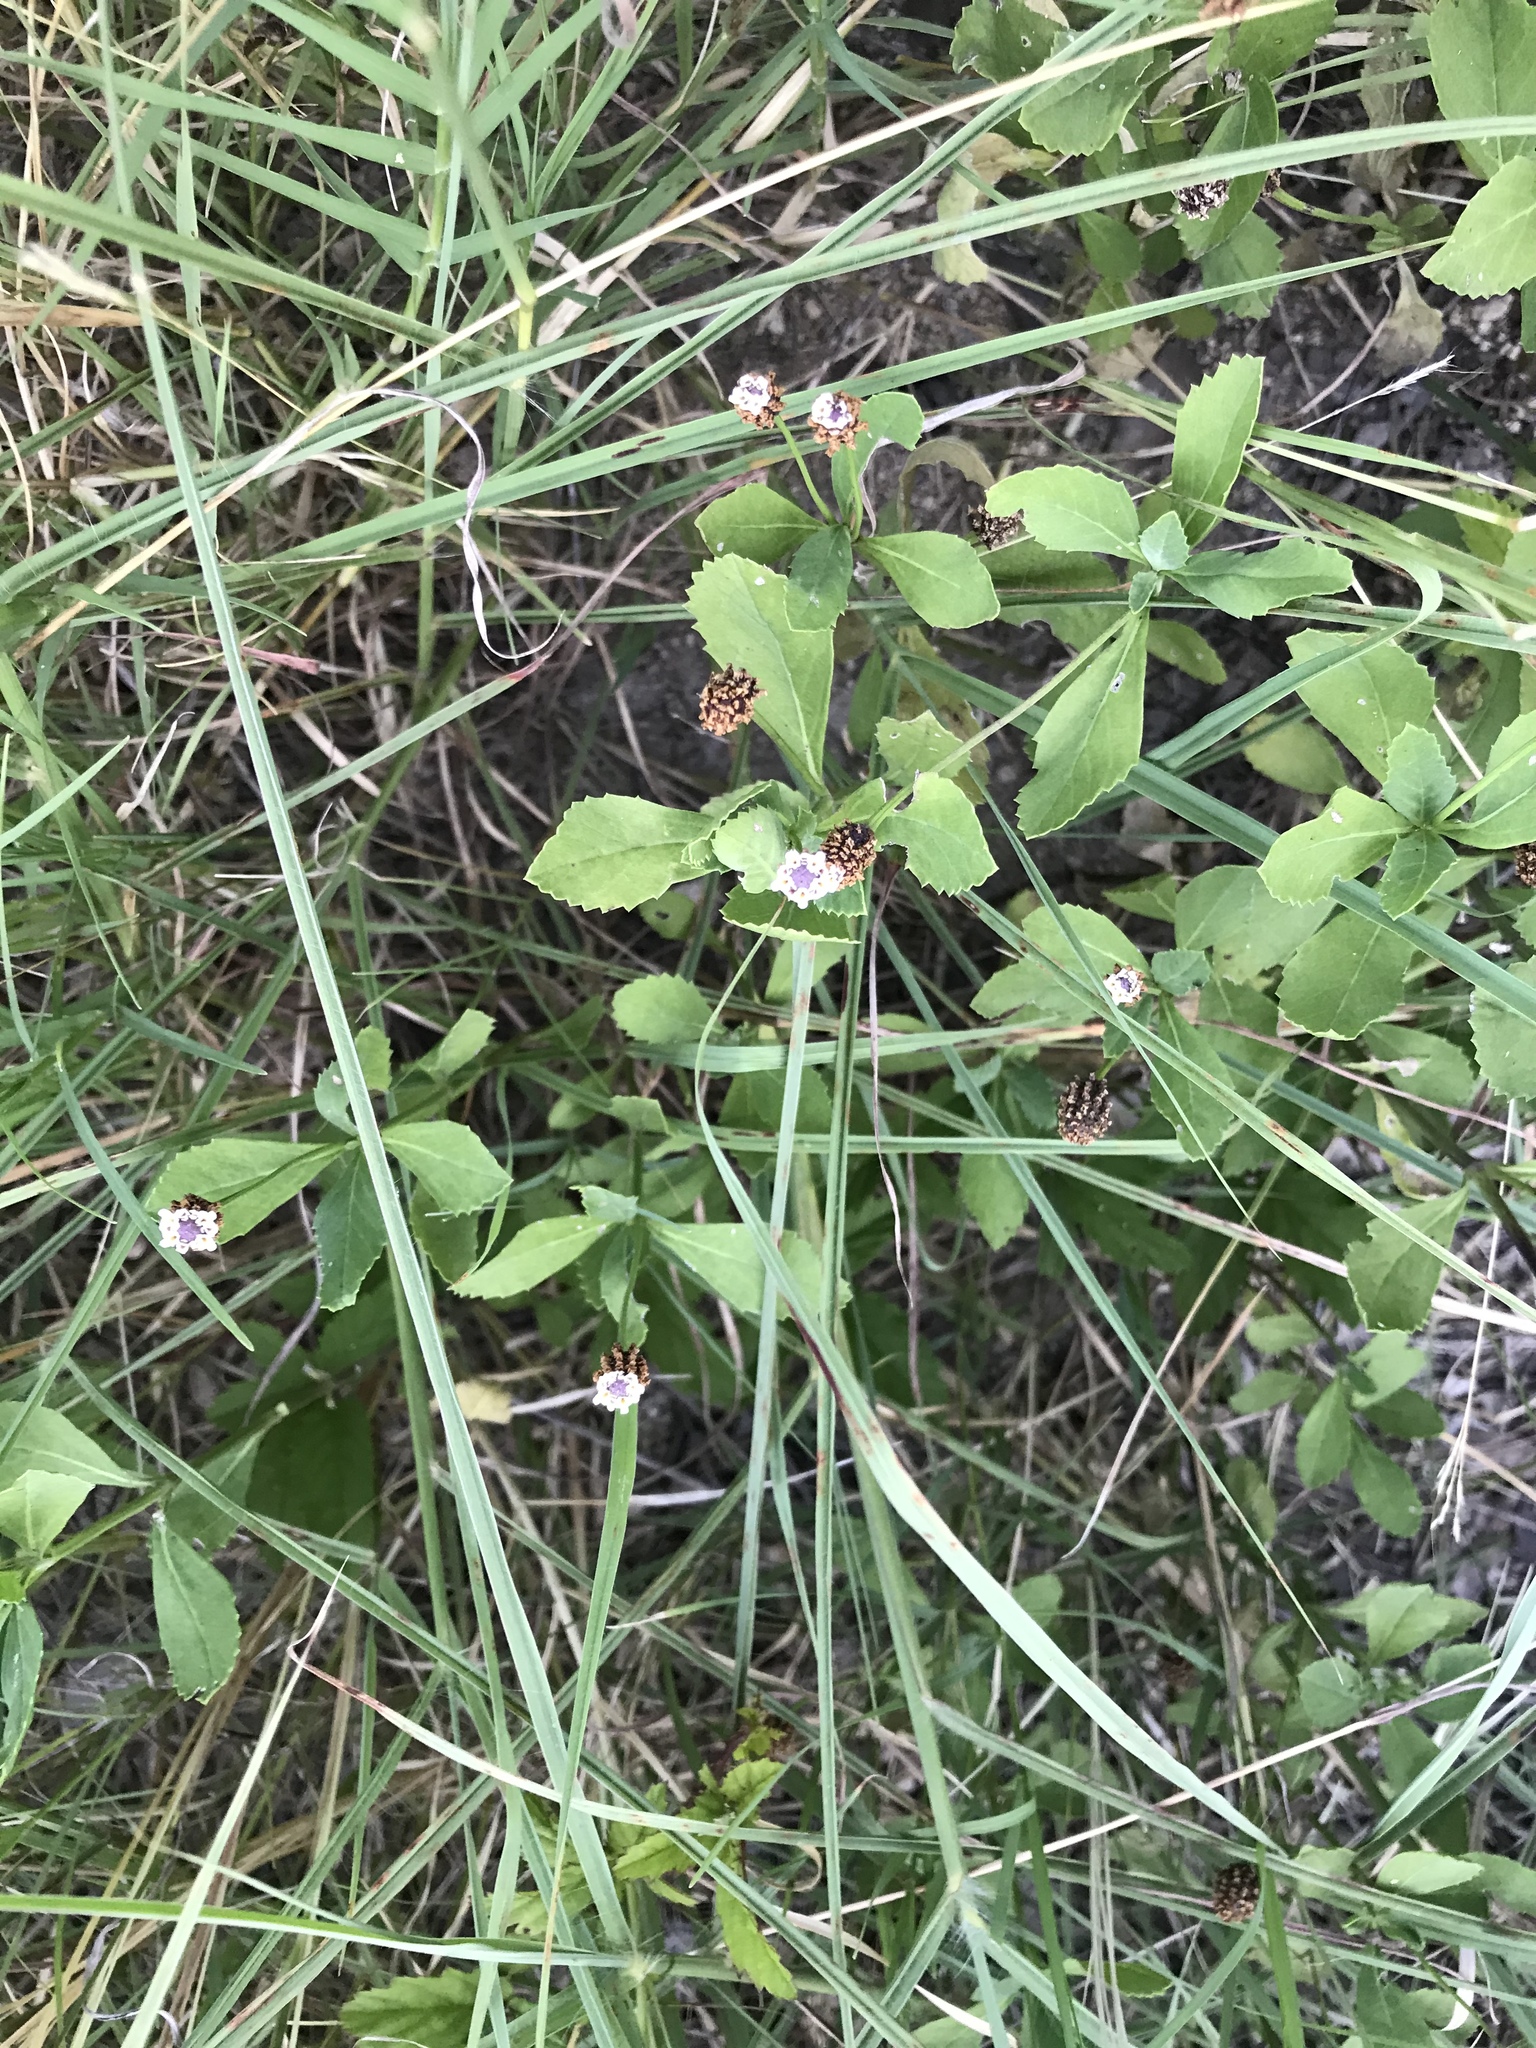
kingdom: Plantae
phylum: Tracheophyta
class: Magnoliopsida
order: Lamiales
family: Verbenaceae
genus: Phyla
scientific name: Phyla lanceolata
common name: Northern fogfruit
